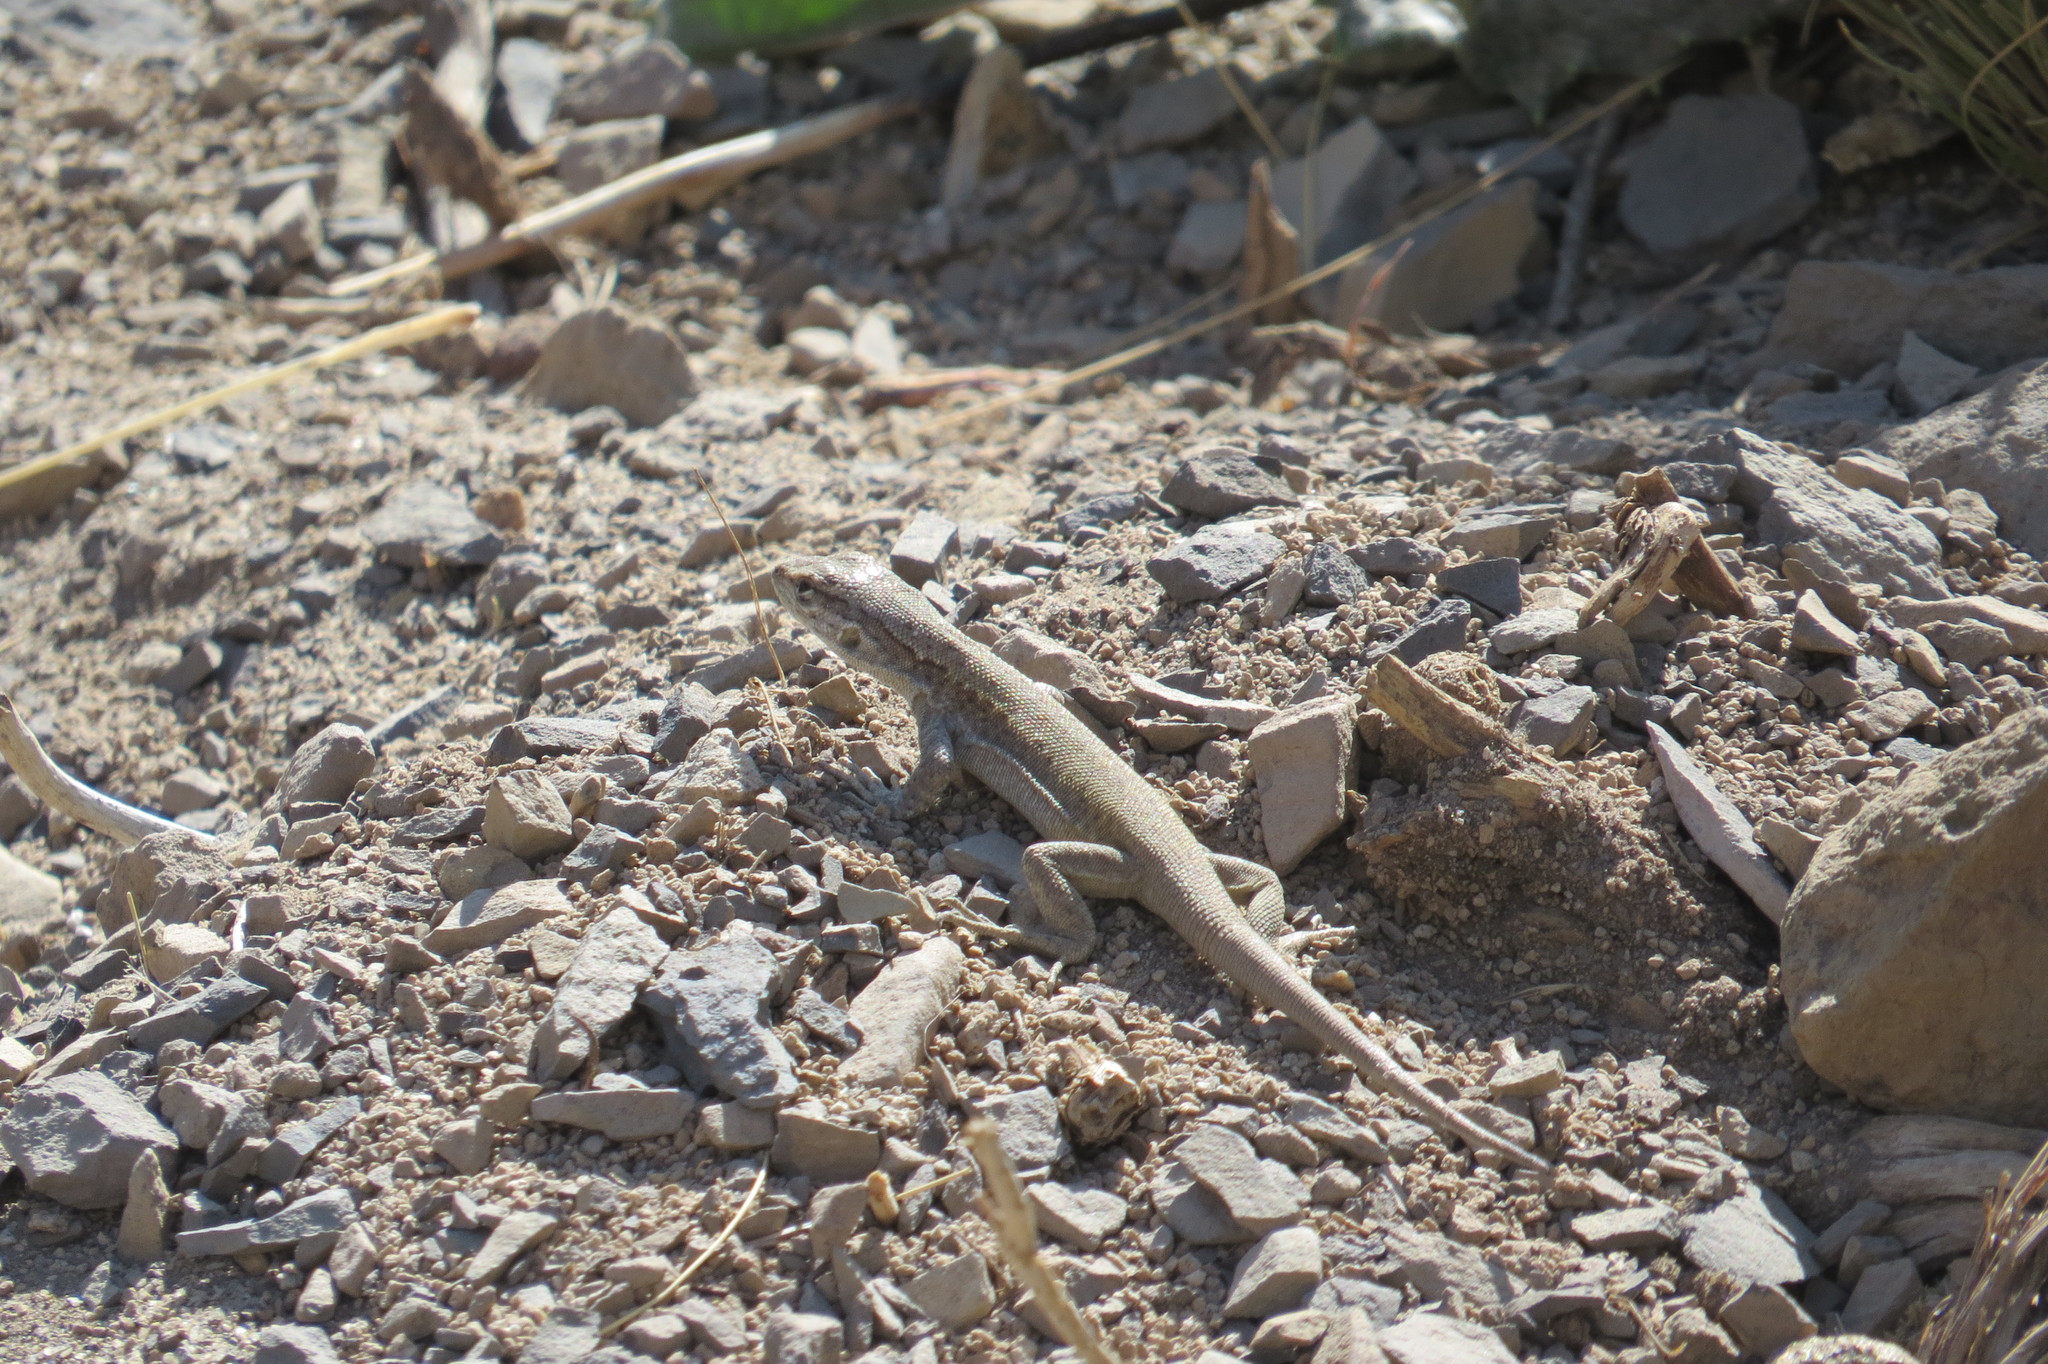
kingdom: Animalia
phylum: Chordata
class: Squamata
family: Liolaemidae
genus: Liolaemus
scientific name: Liolaemus smaug
